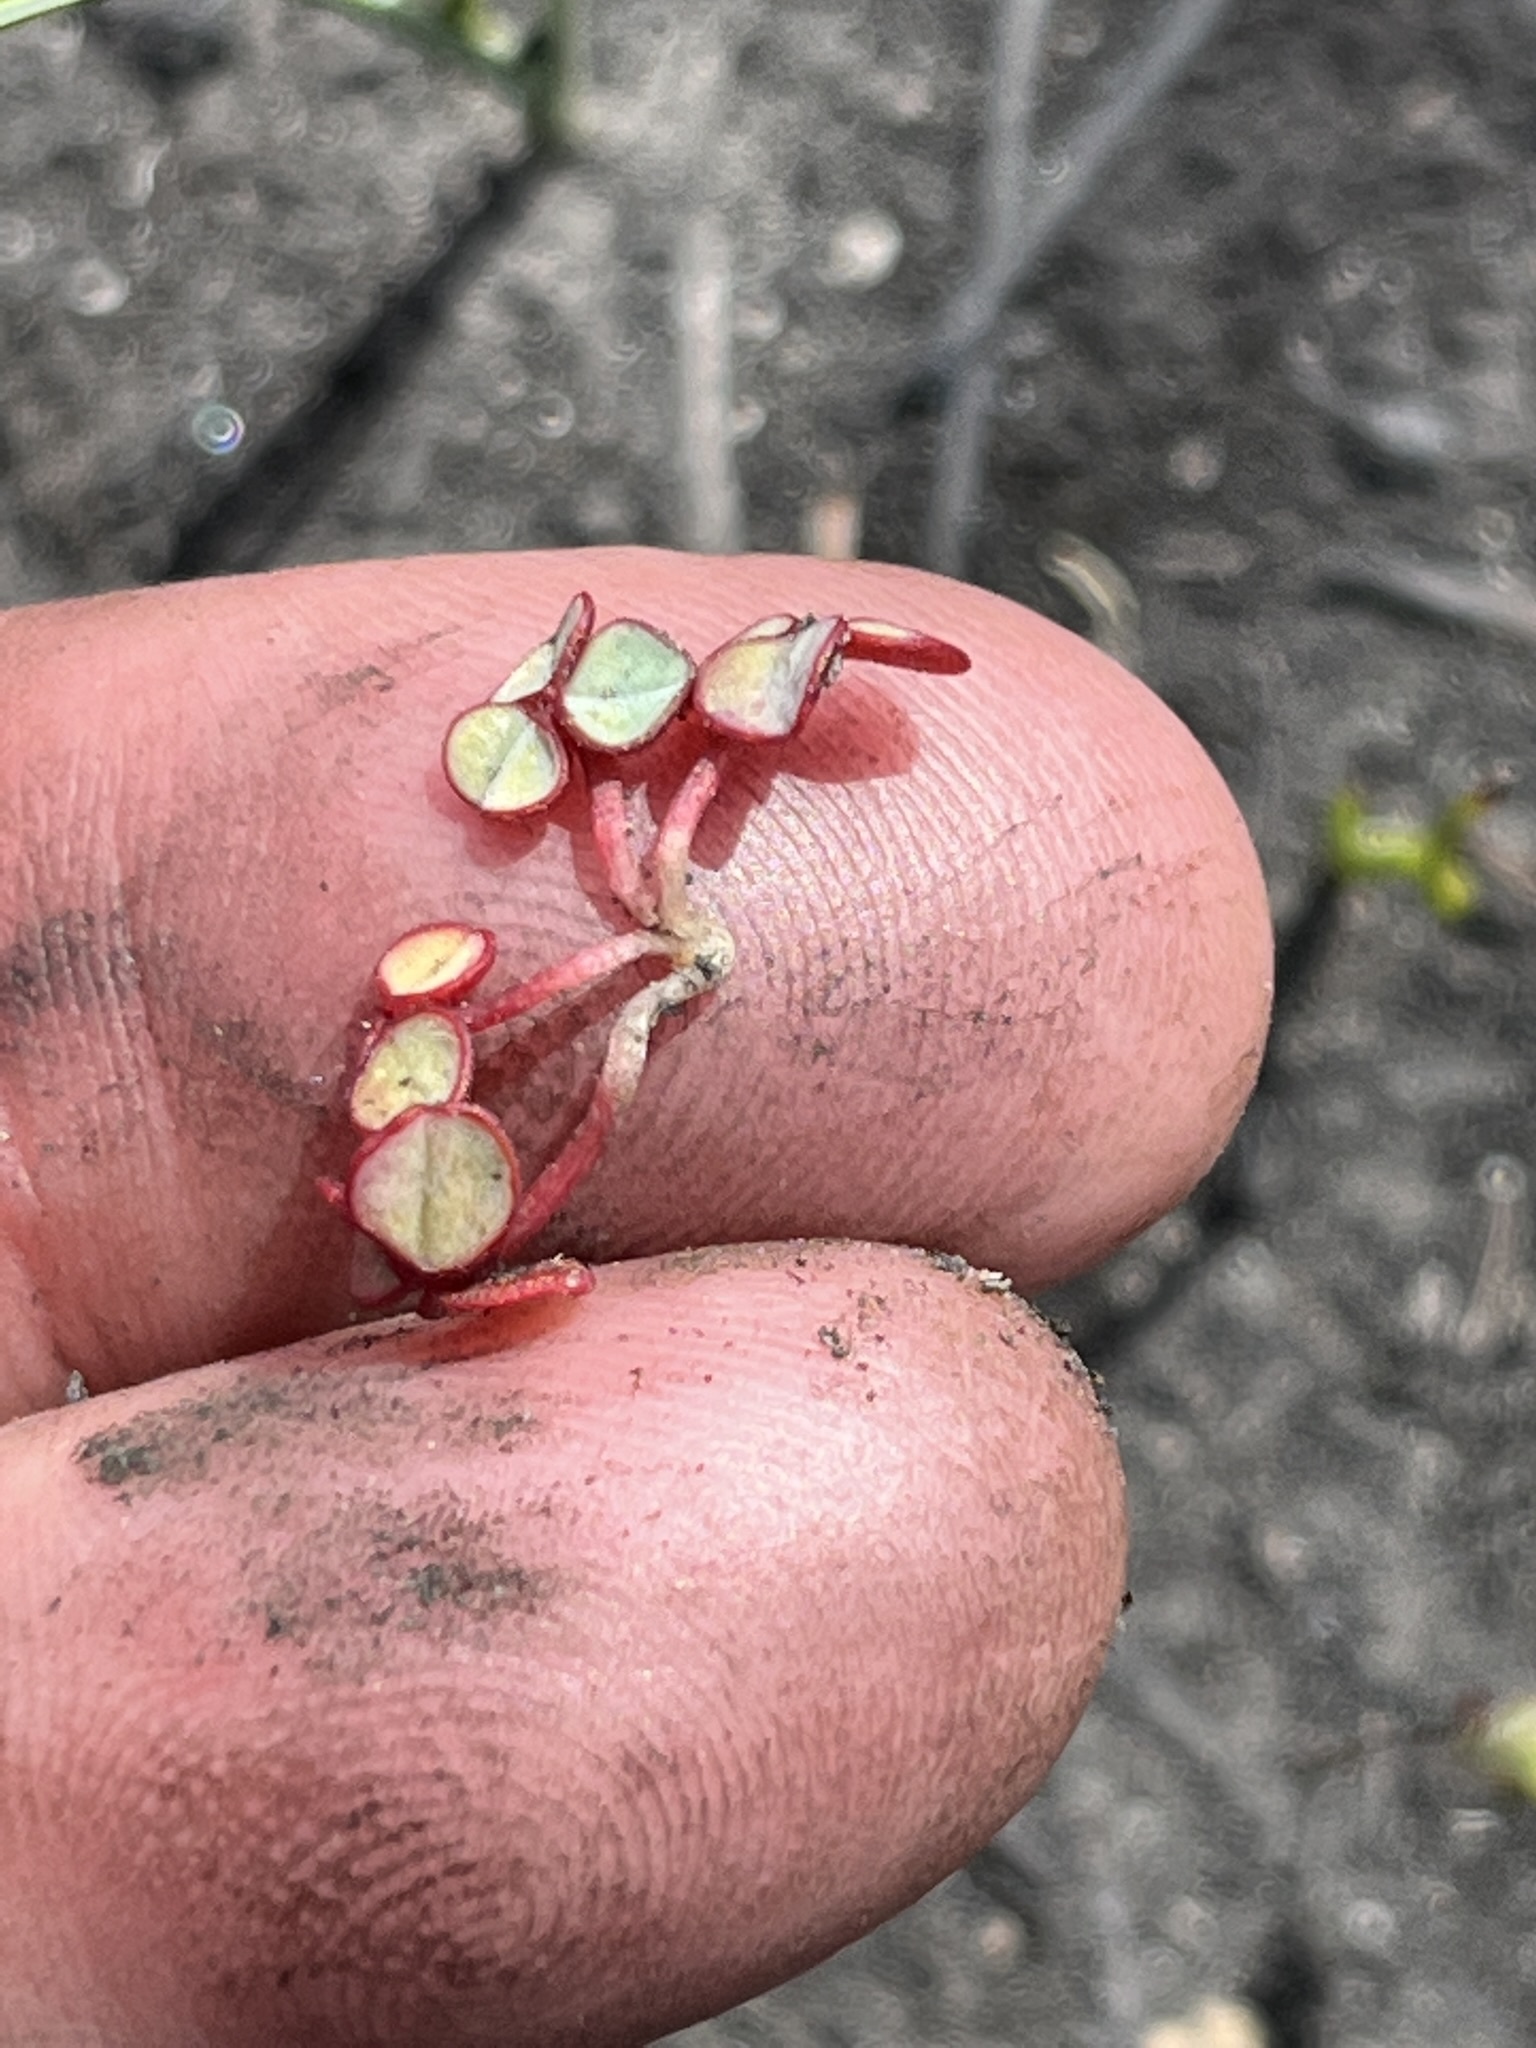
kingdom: Plantae
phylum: Tracheophyta
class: Magnoliopsida
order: Oxalidales
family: Oxalidaceae
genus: Oxalis
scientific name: Oxalis commutata
